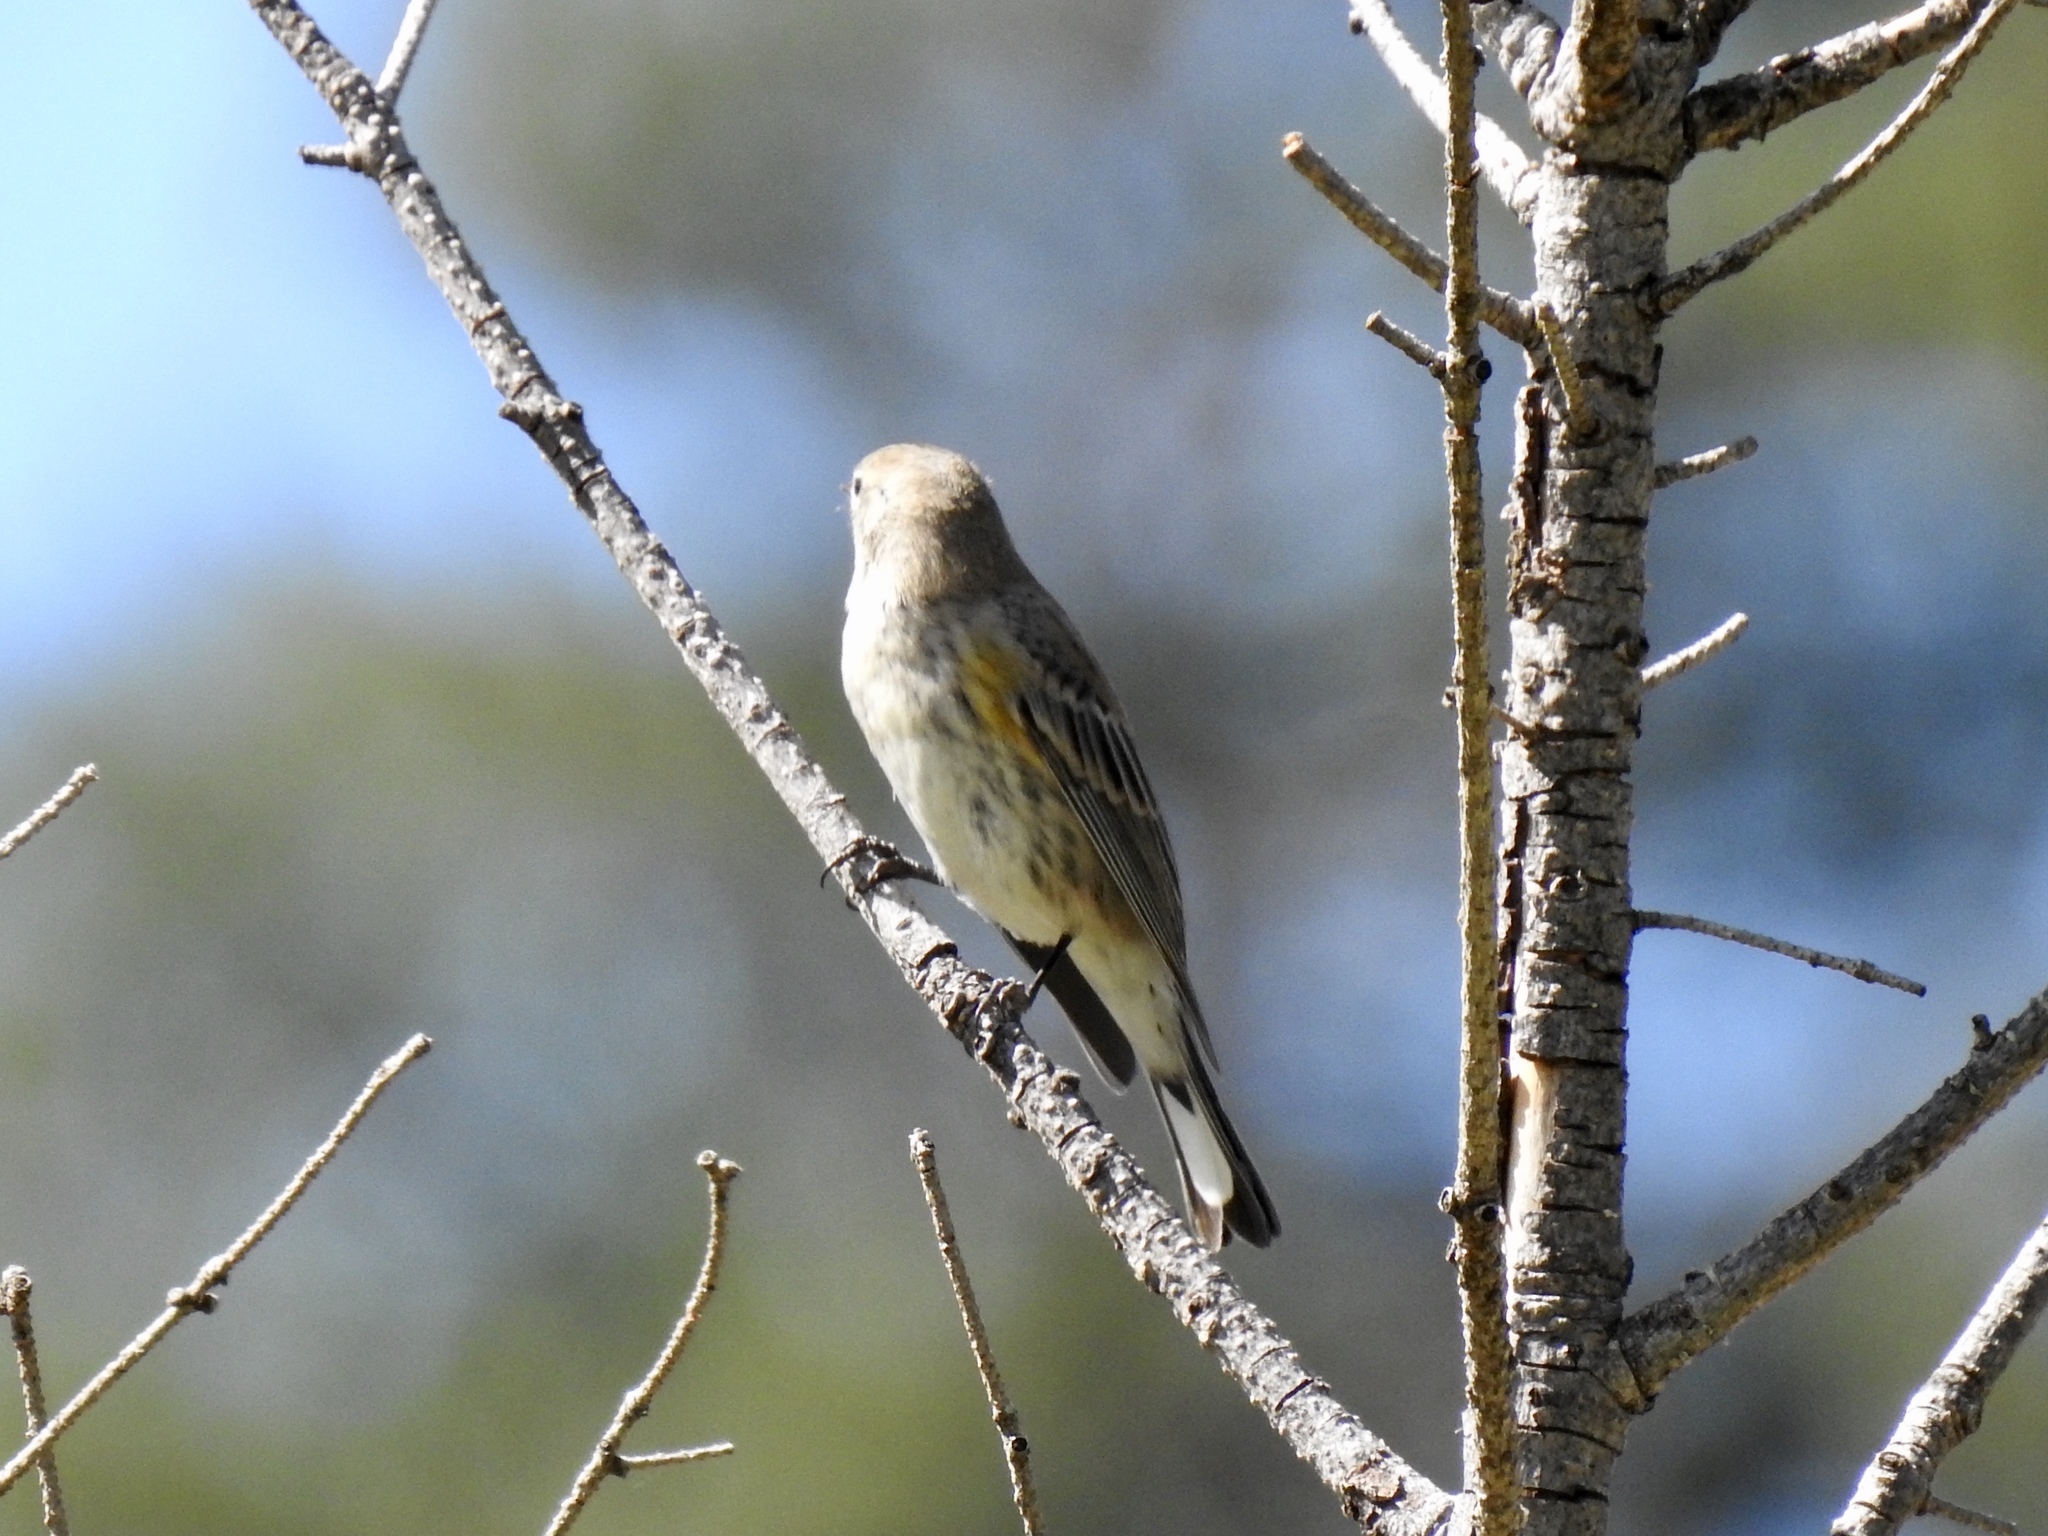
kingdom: Animalia
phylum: Chordata
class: Aves
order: Passeriformes
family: Parulidae
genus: Setophaga
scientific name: Setophaga coronata
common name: Myrtle warbler
